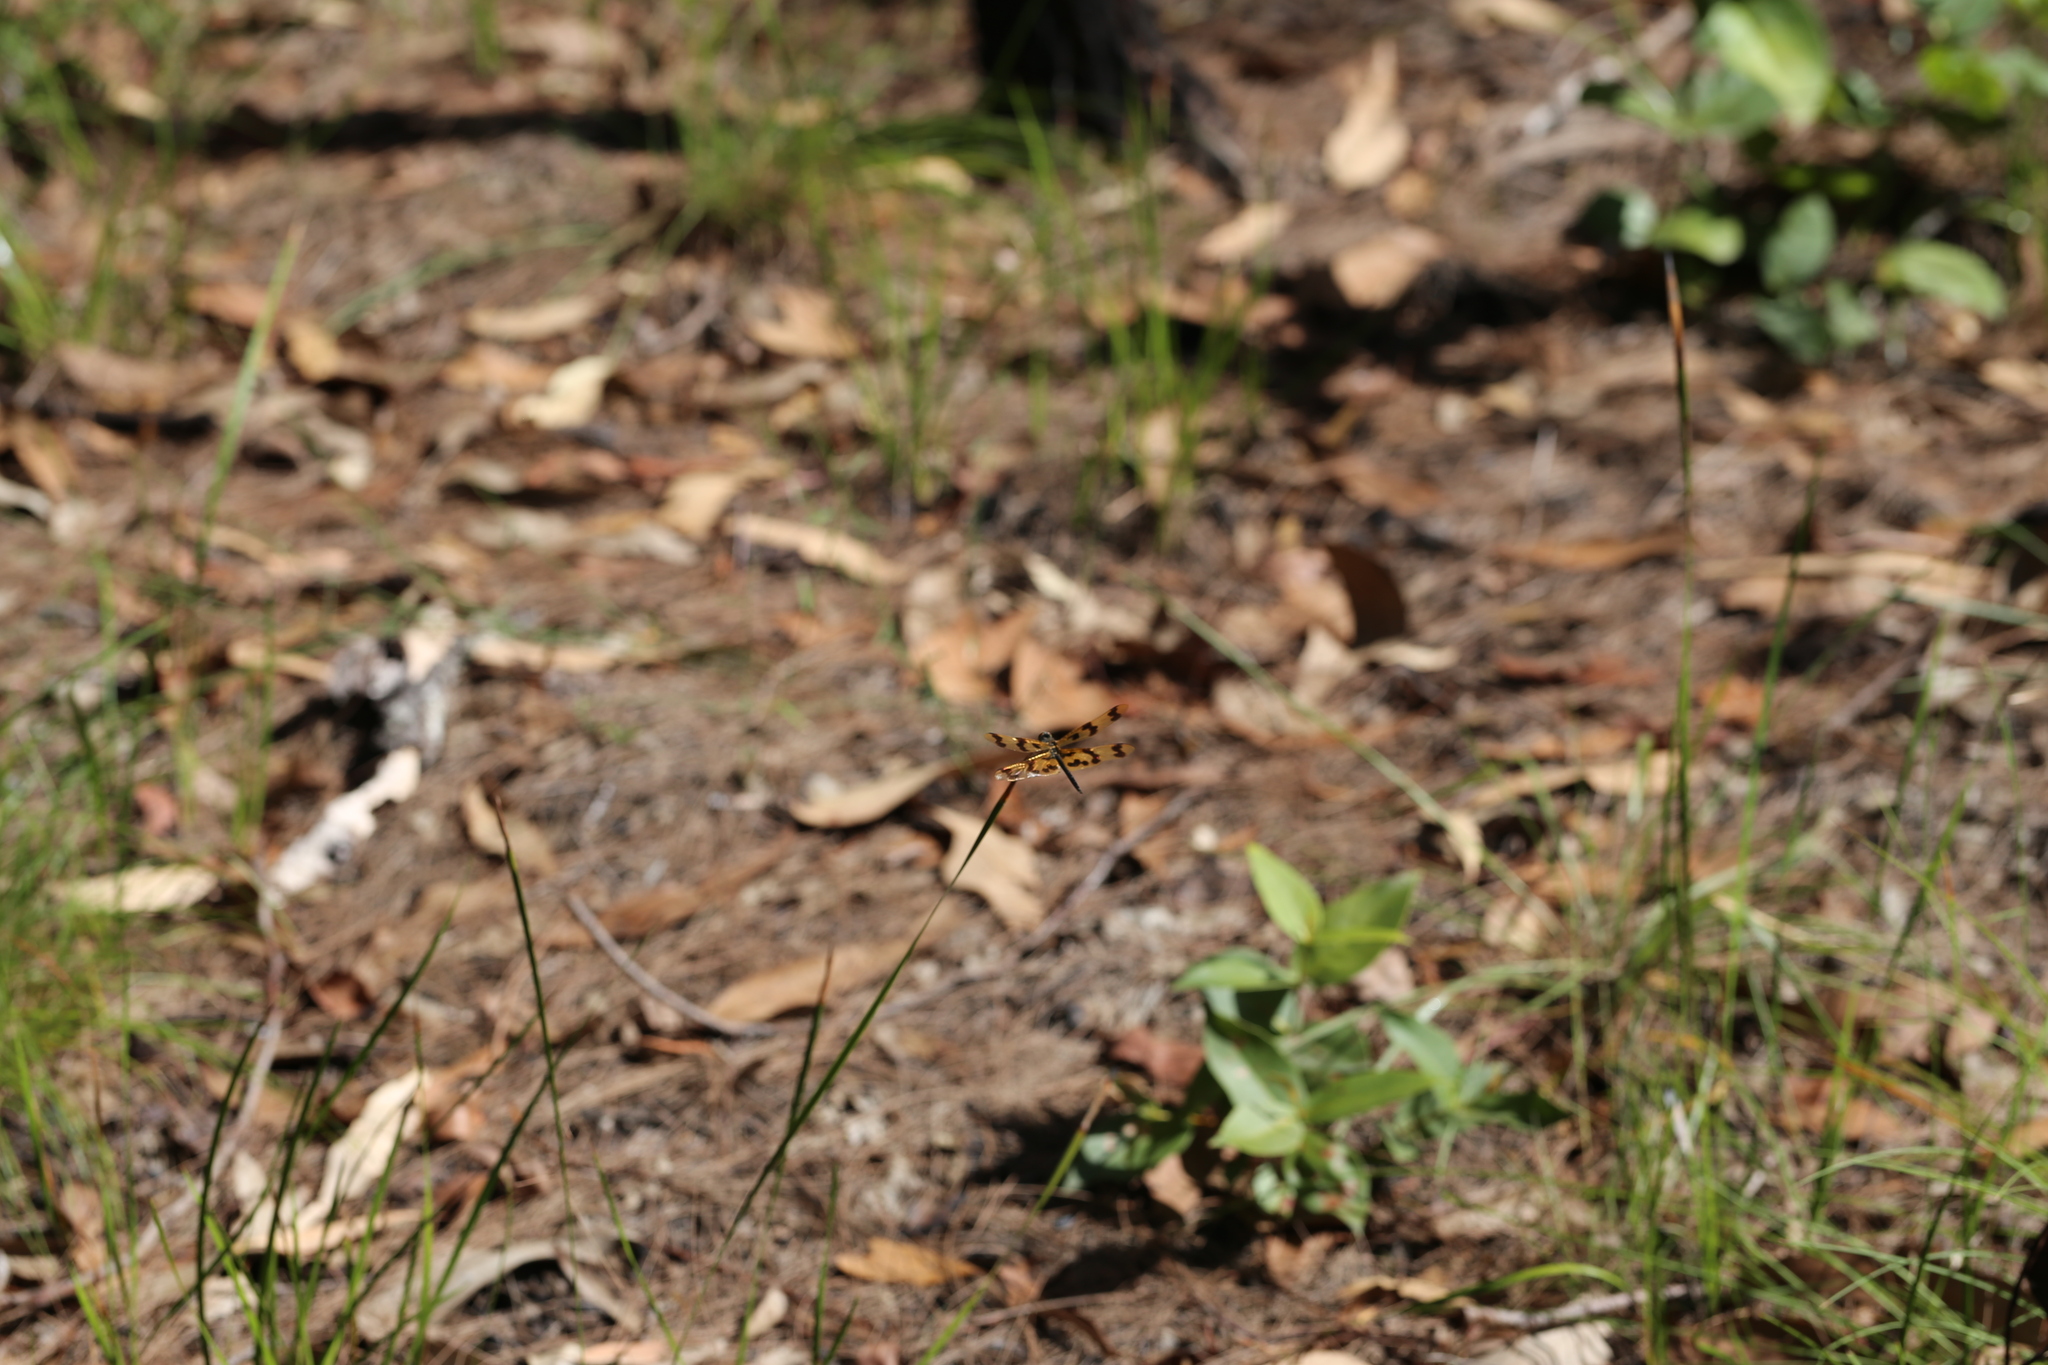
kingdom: Animalia
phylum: Arthropoda
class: Insecta
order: Odonata
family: Libellulidae
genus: Rhyothemis
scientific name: Rhyothemis graphiptera
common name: Graphic flutterer
